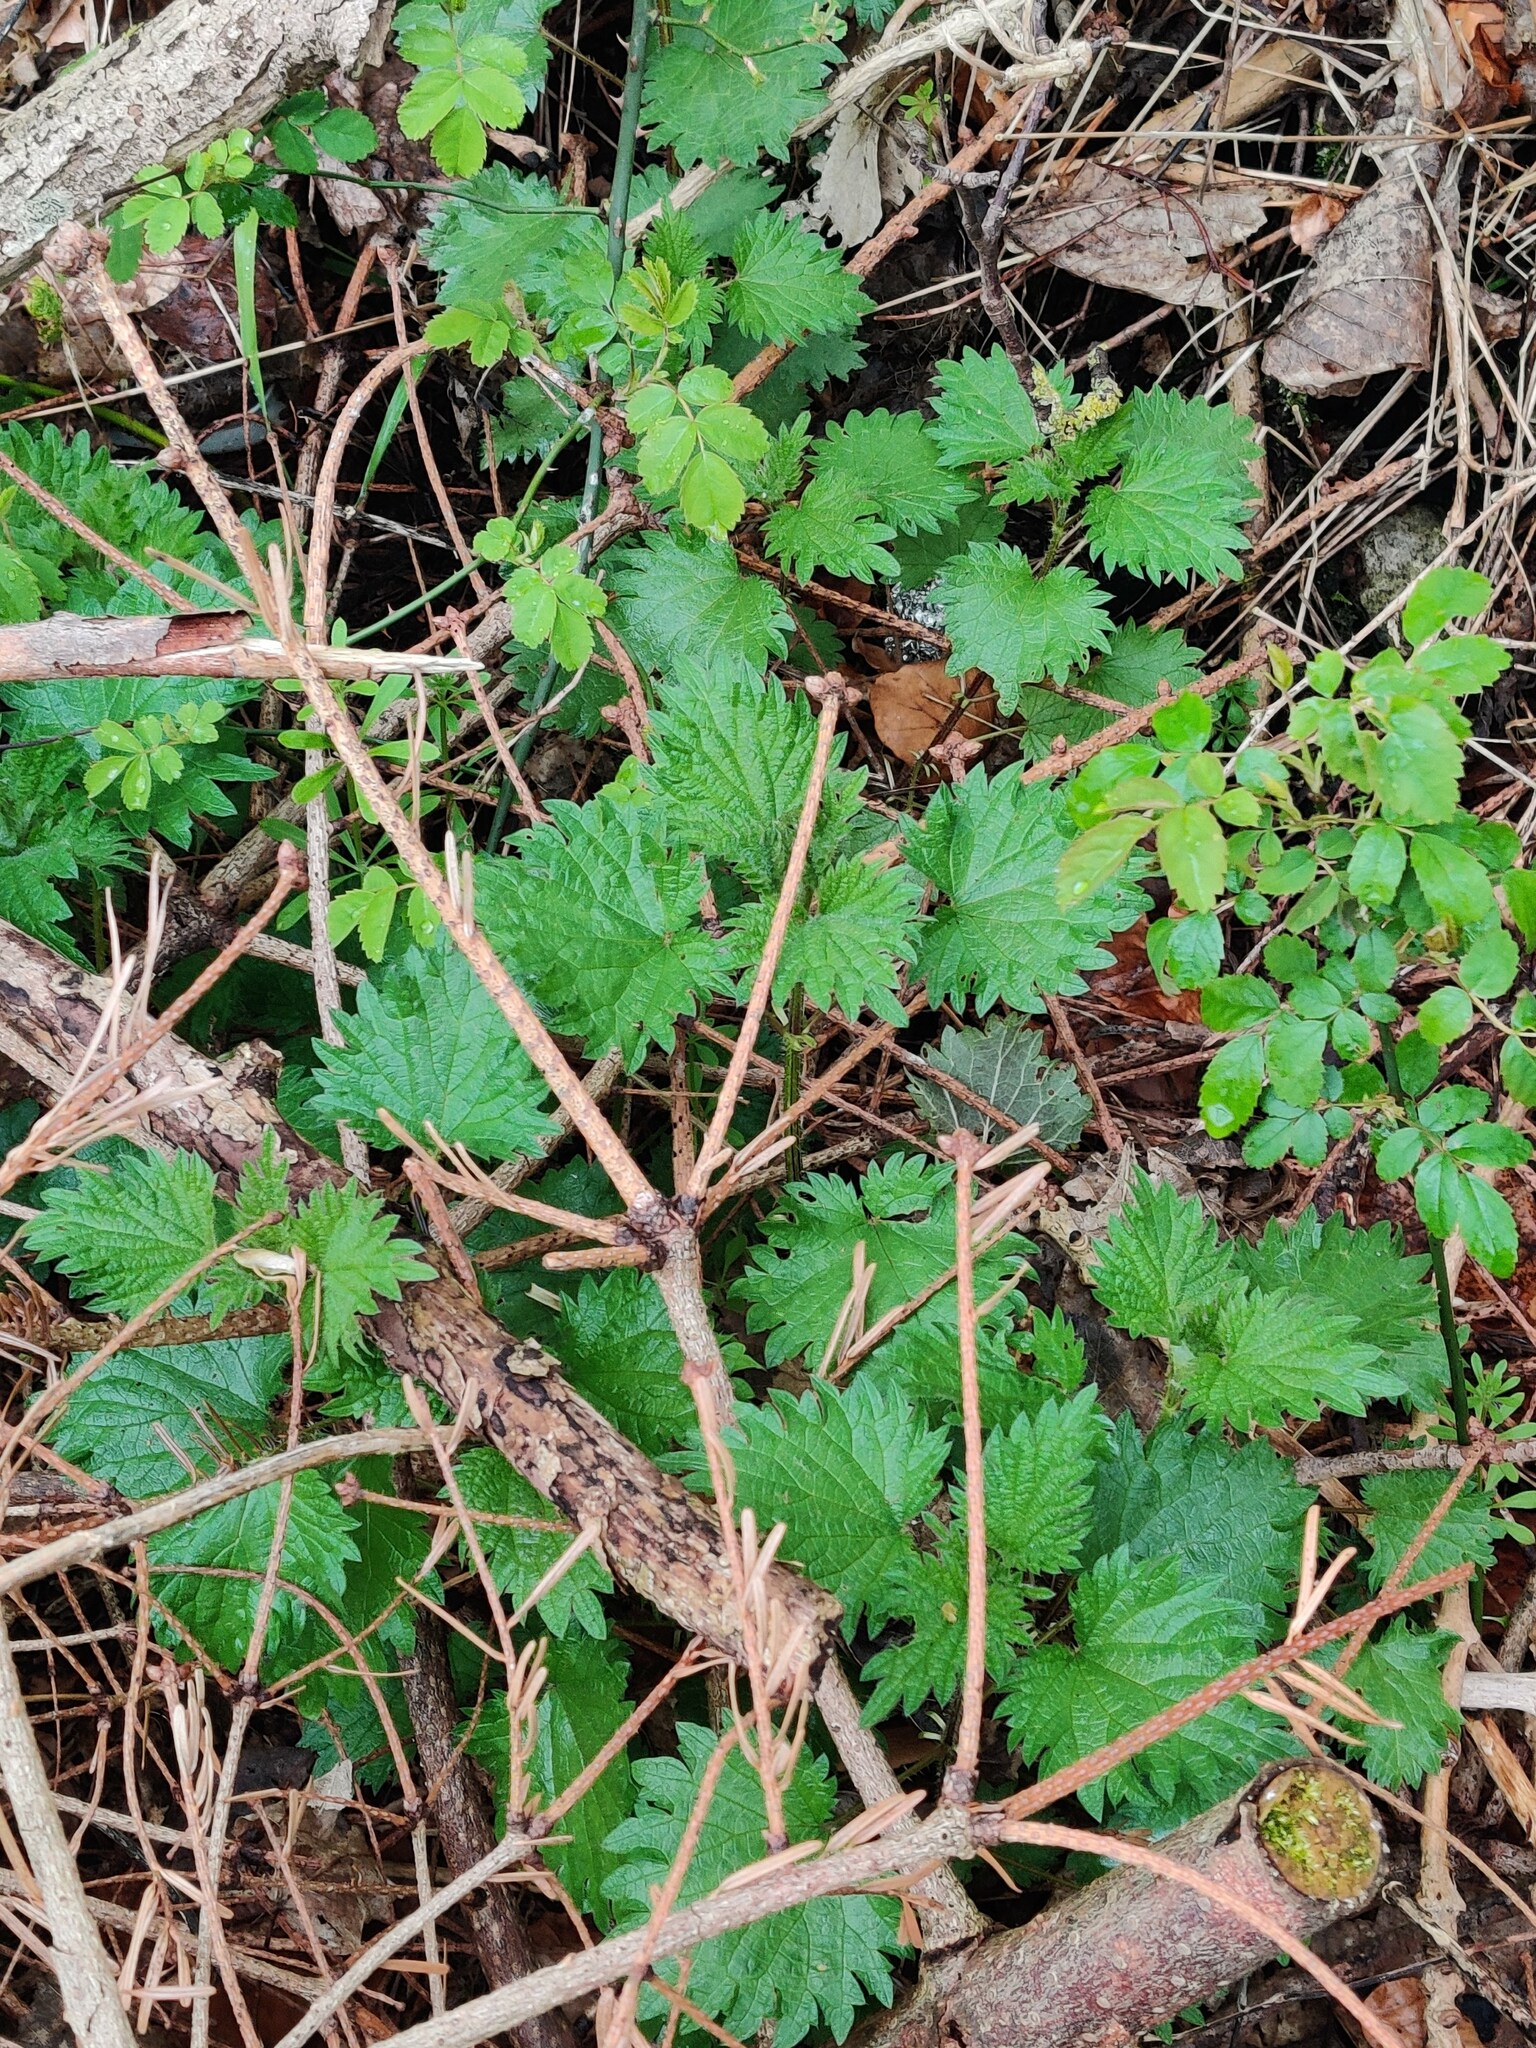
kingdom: Plantae
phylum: Tracheophyta
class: Magnoliopsida
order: Rosales
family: Urticaceae
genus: Urtica
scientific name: Urtica dioica
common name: Common nettle
